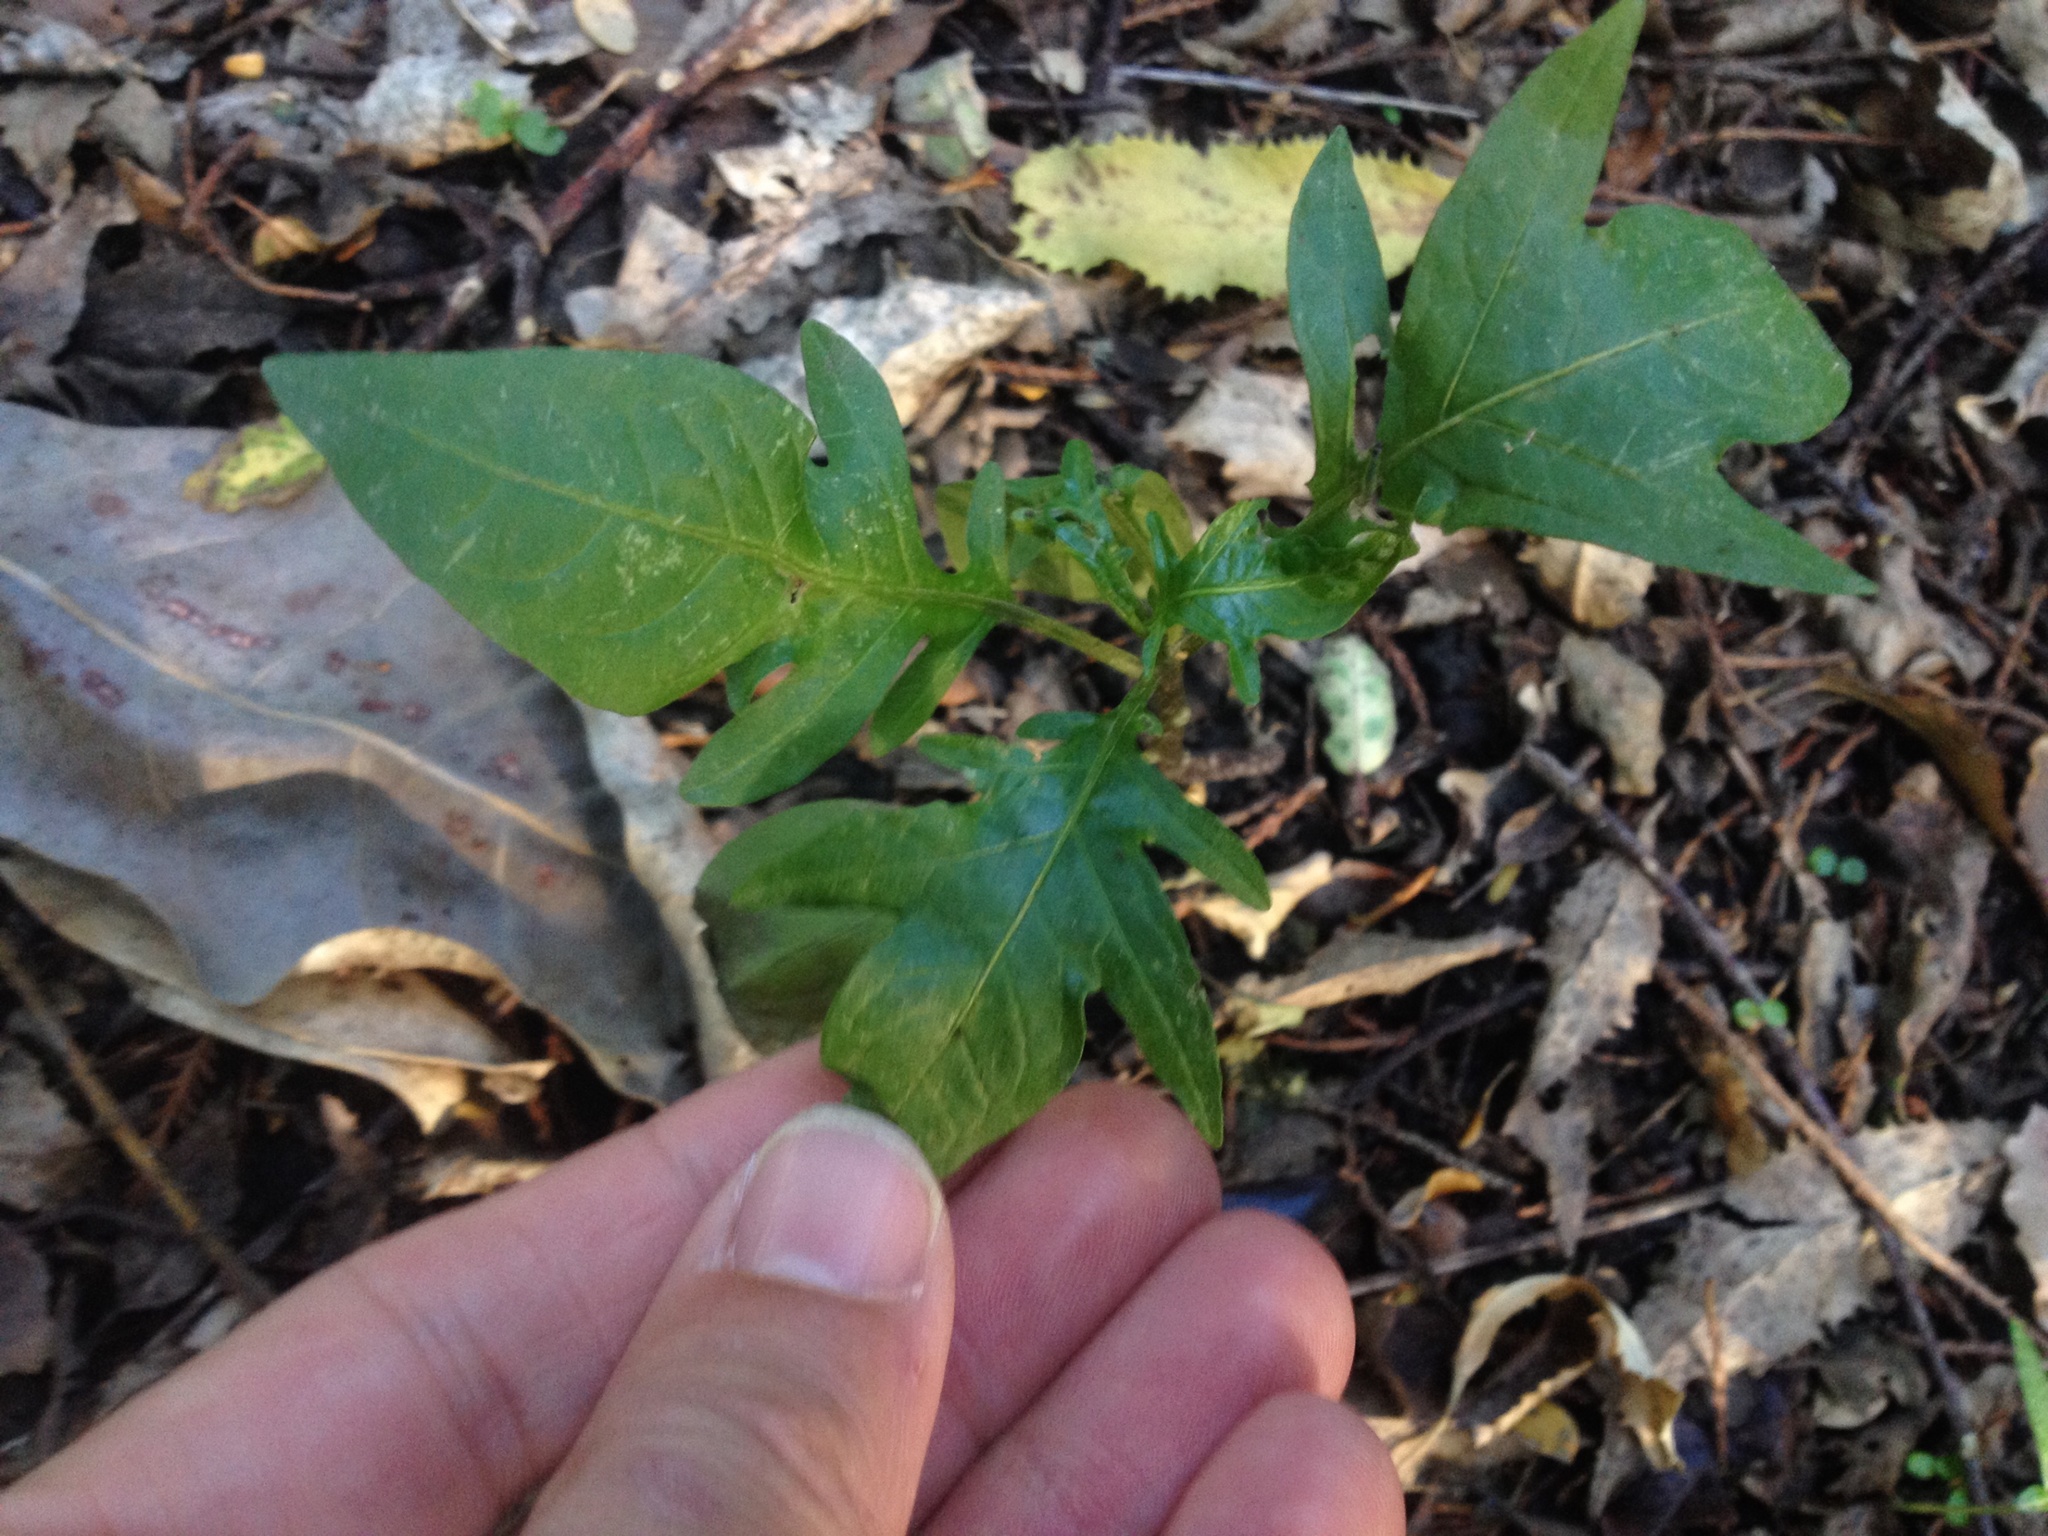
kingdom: Plantae
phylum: Tracheophyta
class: Magnoliopsida
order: Solanales
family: Solanaceae
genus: Solanum
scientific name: Solanum laciniatum
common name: Kangaroo-apple
